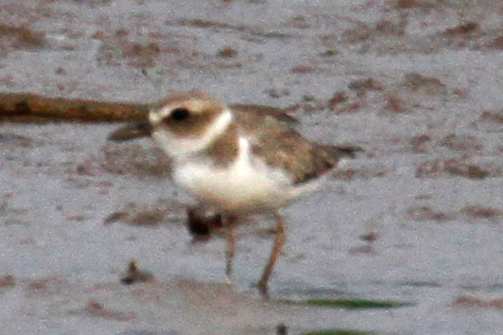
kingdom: Animalia
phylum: Chordata
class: Aves
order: Charadriiformes
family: Charadriidae
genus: Anarhynchus
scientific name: Anarhynchus
